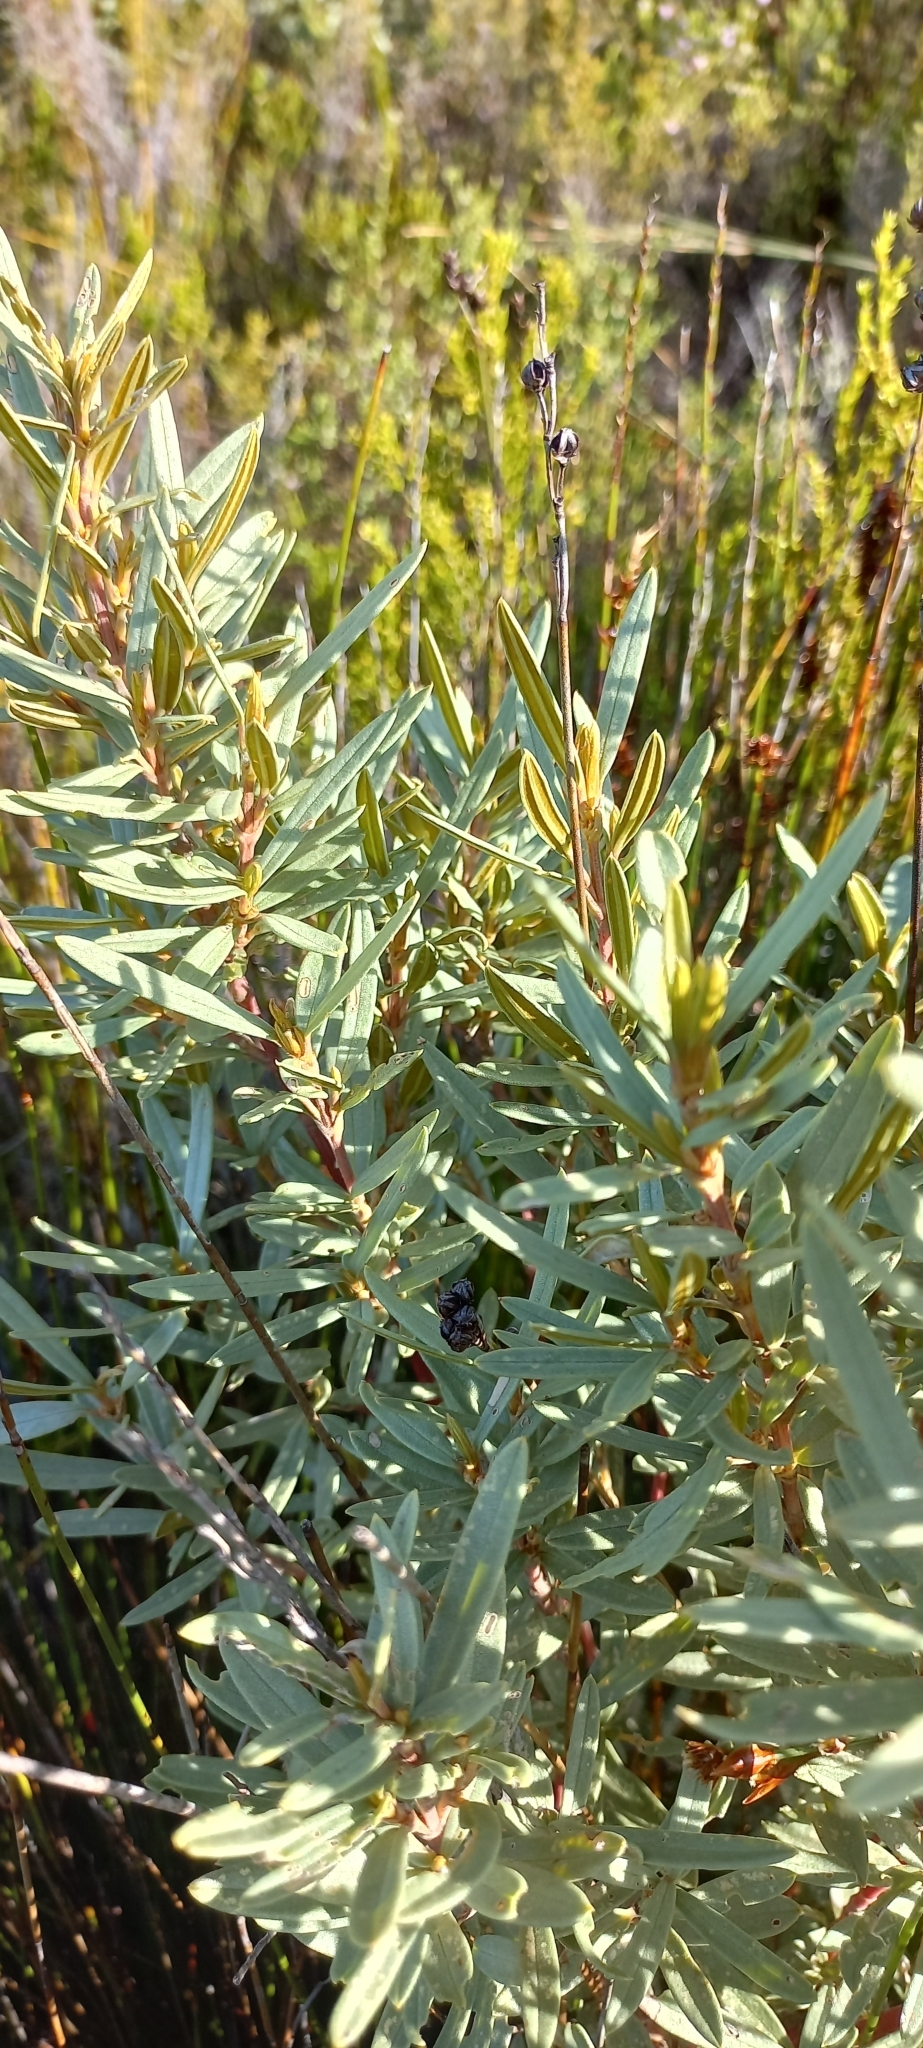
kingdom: Plantae
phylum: Tracheophyta
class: Magnoliopsida
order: Cornales
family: Grubbiaceae
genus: Grubbia
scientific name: Grubbia tomentosa
